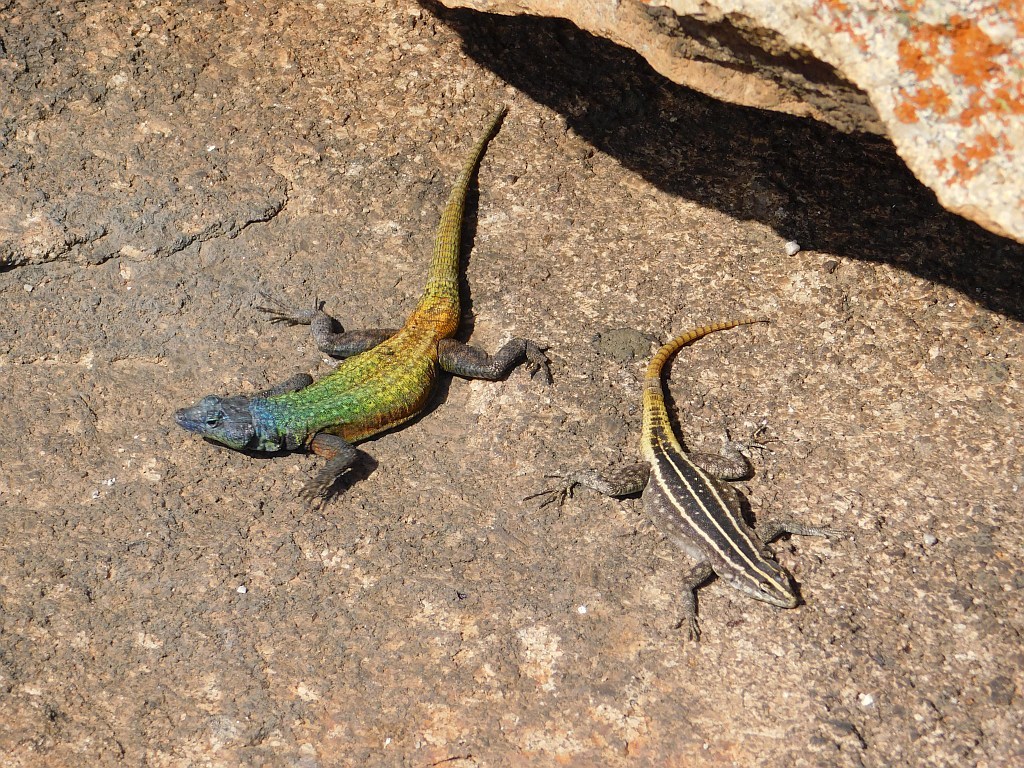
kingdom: Animalia
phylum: Chordata
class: Squamata
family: Cordylidae
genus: Platysaurus
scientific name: Platysaurus intermedius
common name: Common flat lizard
